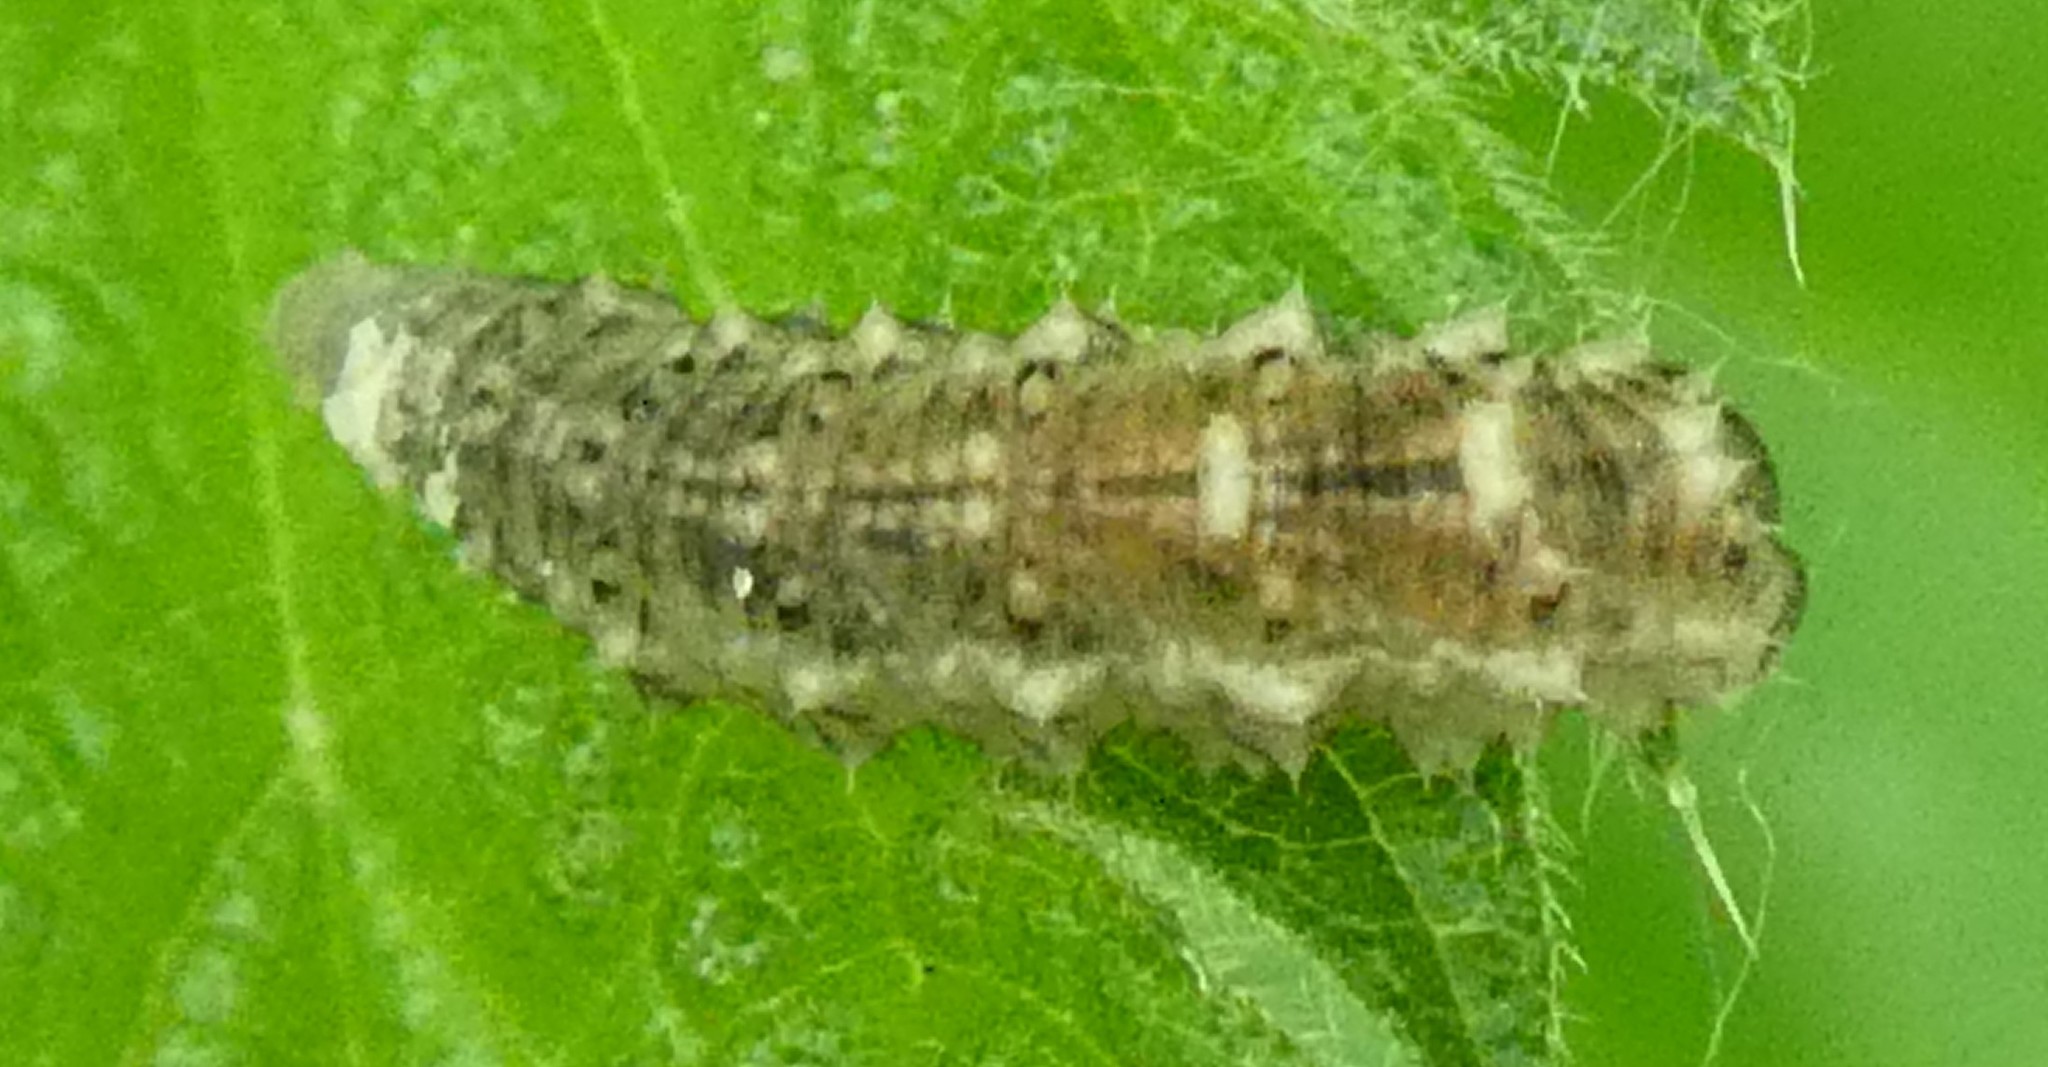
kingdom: Animalia
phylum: Arthropoda
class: Insecta
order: Diptera
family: Syrphidae
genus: Eupeodes
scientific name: Eupeodes
